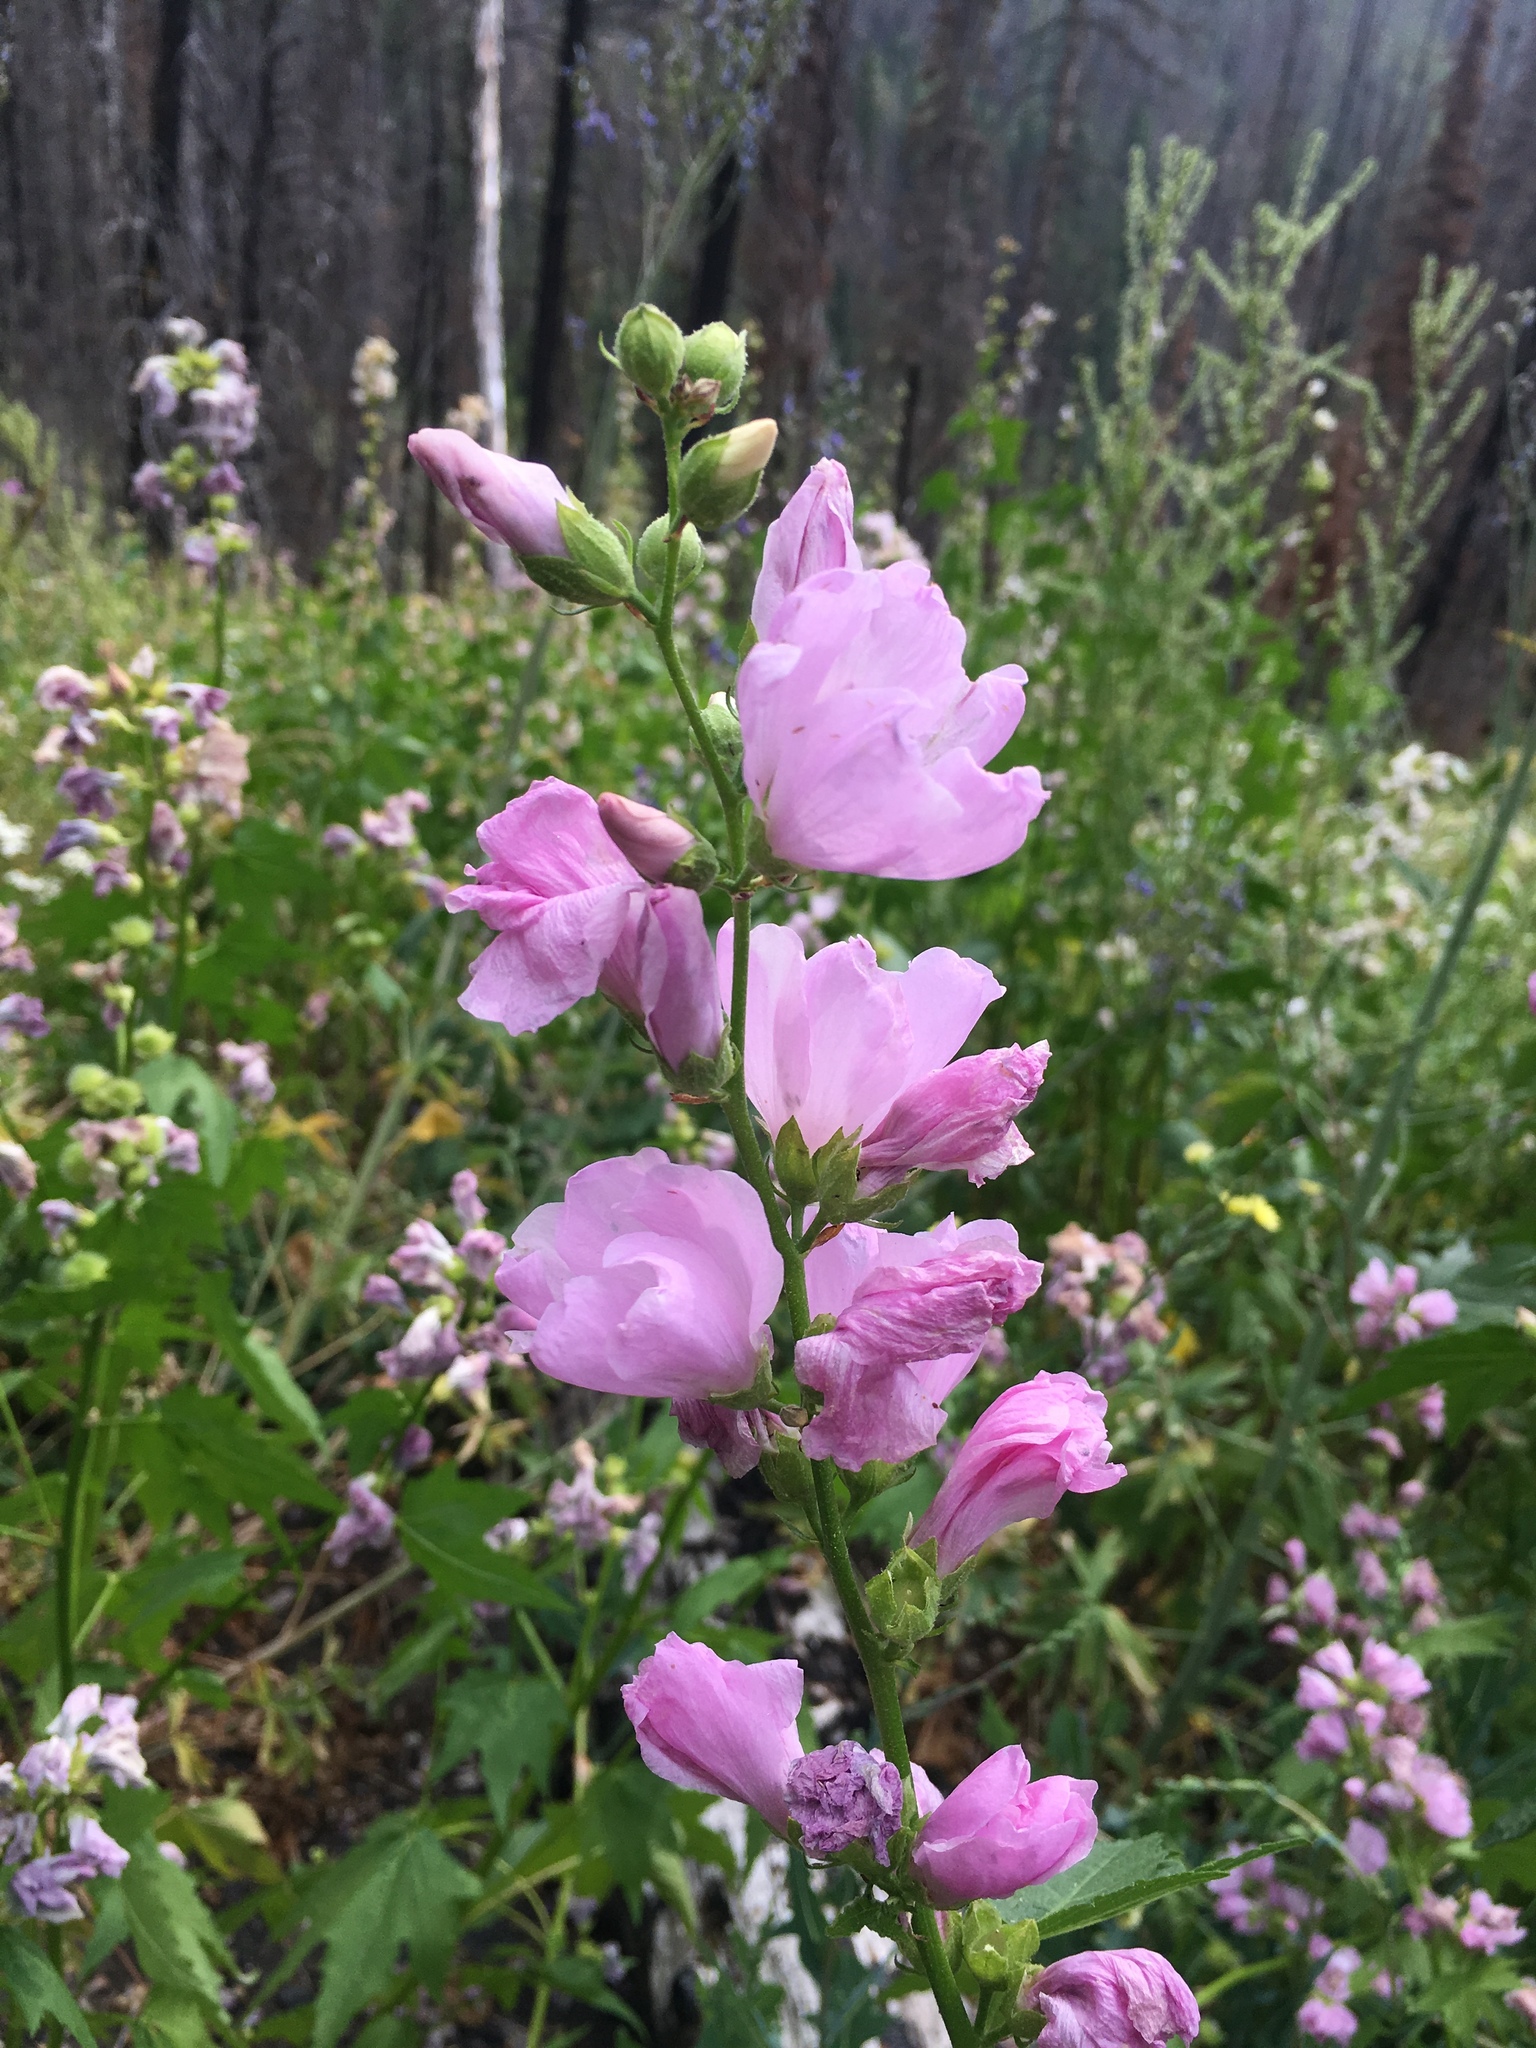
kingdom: Plantae
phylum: Tracheophyta
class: Magnoliopsida
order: Malvales
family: Malvaceae
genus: Iliamna
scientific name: Iliamna rivularis
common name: Wild hollyhock
